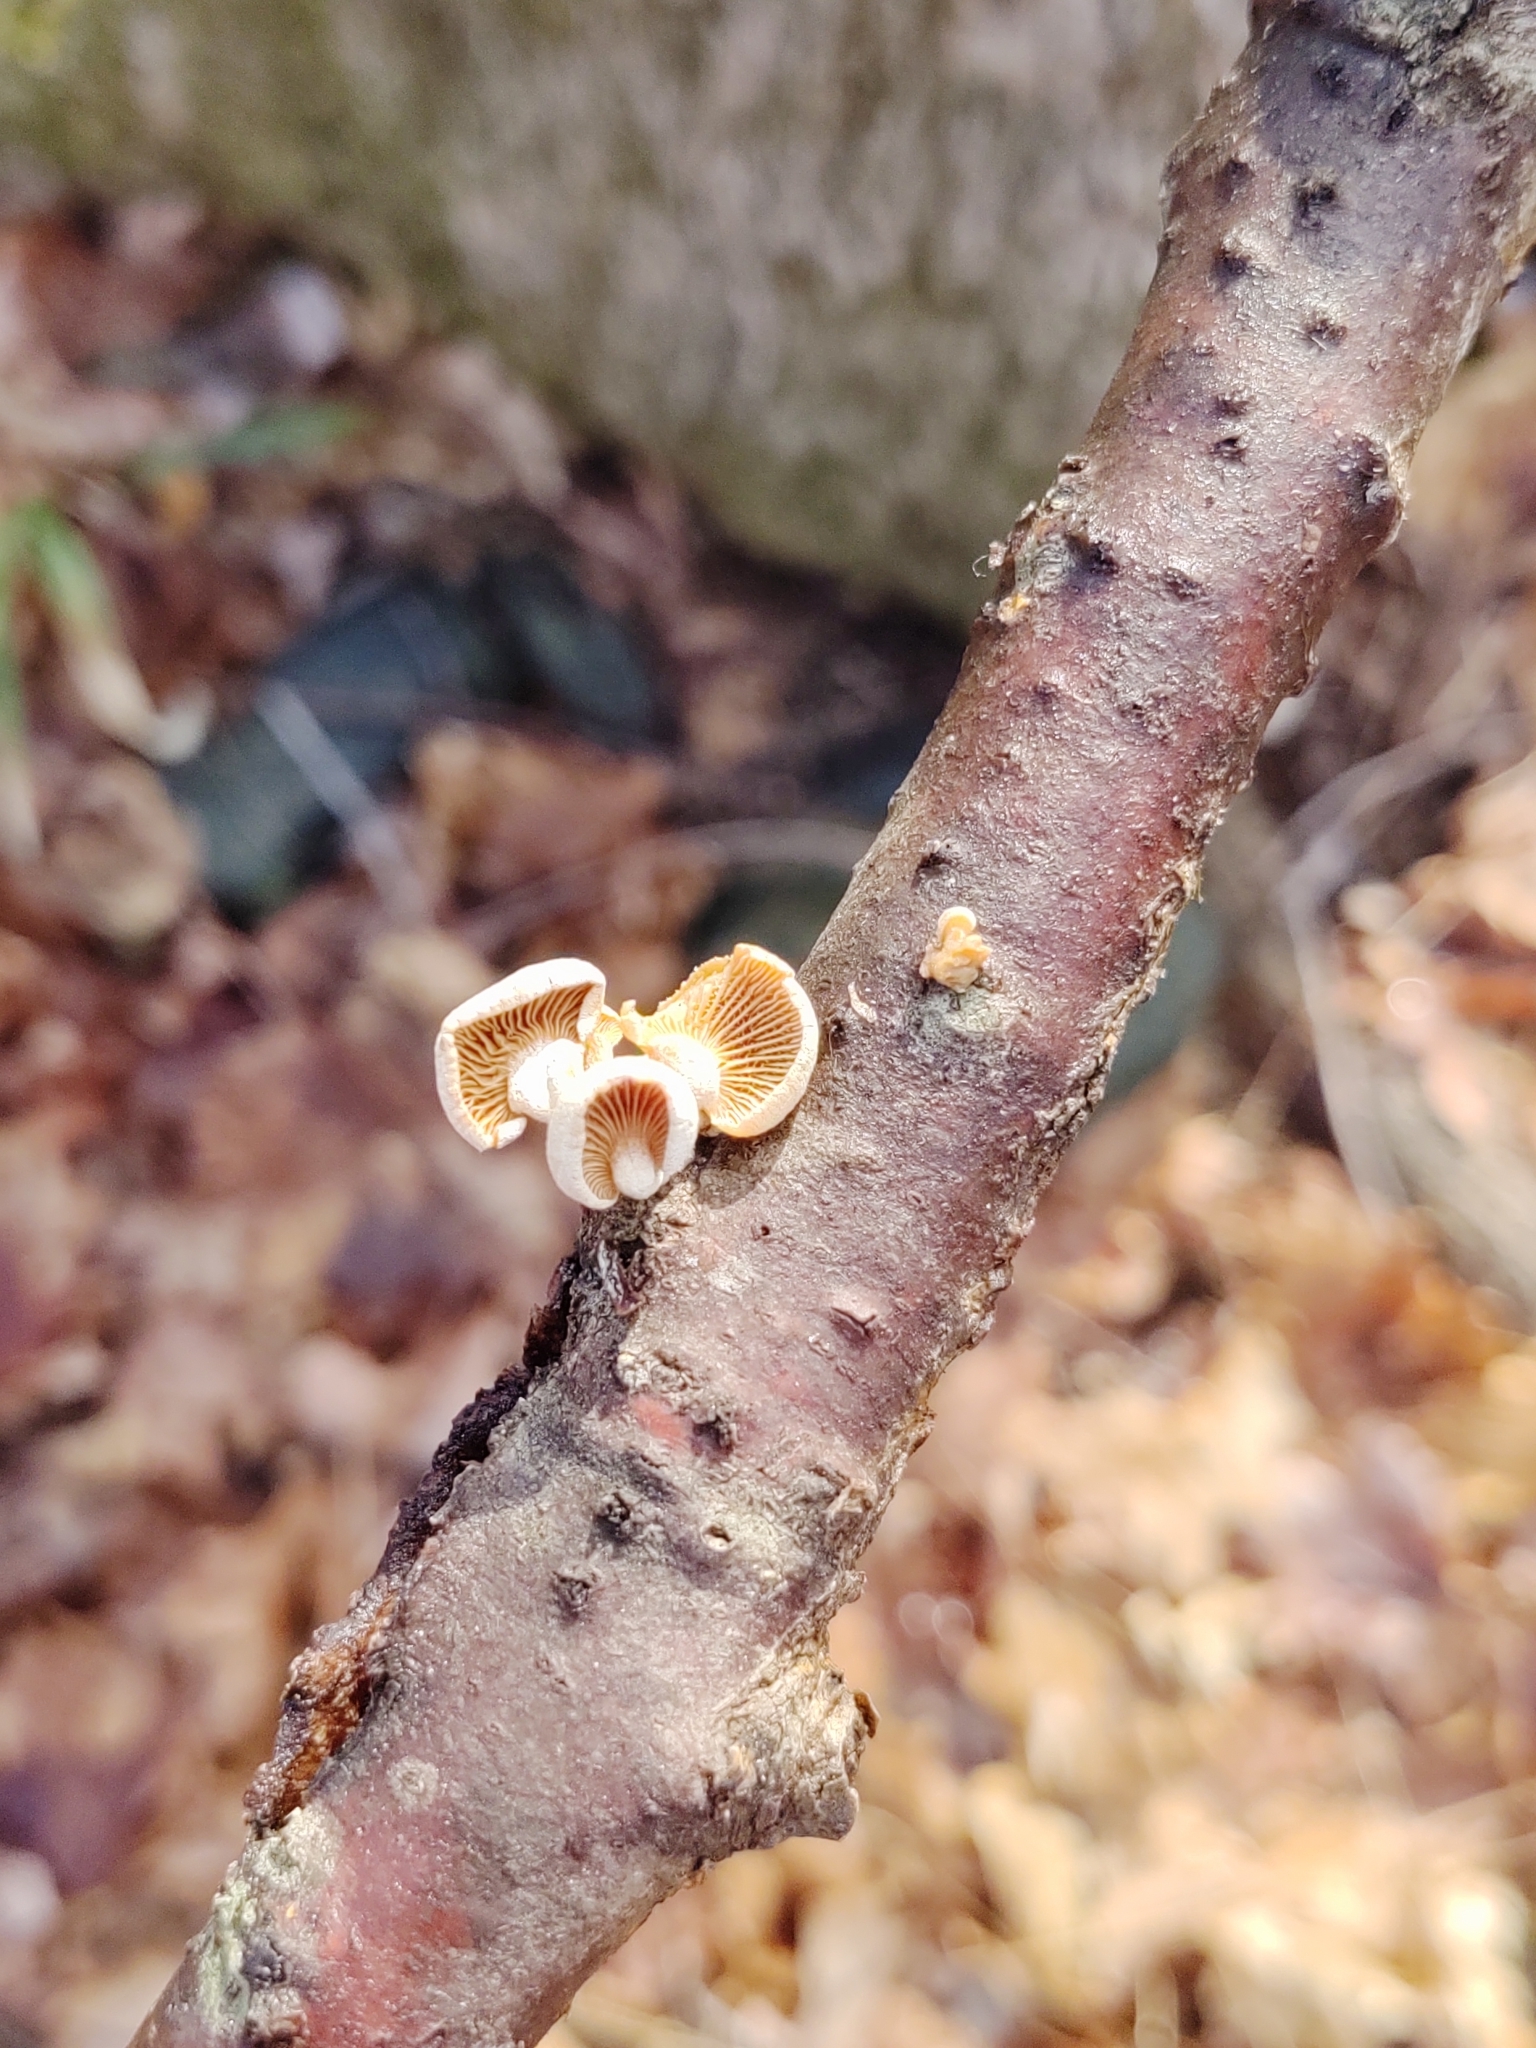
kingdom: Fungi
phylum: Basidiomycota
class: Agaricomycetes
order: Agaricales
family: Mycenaceae
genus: Panellus
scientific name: Panellus stipticus
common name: Bitter oysterling
